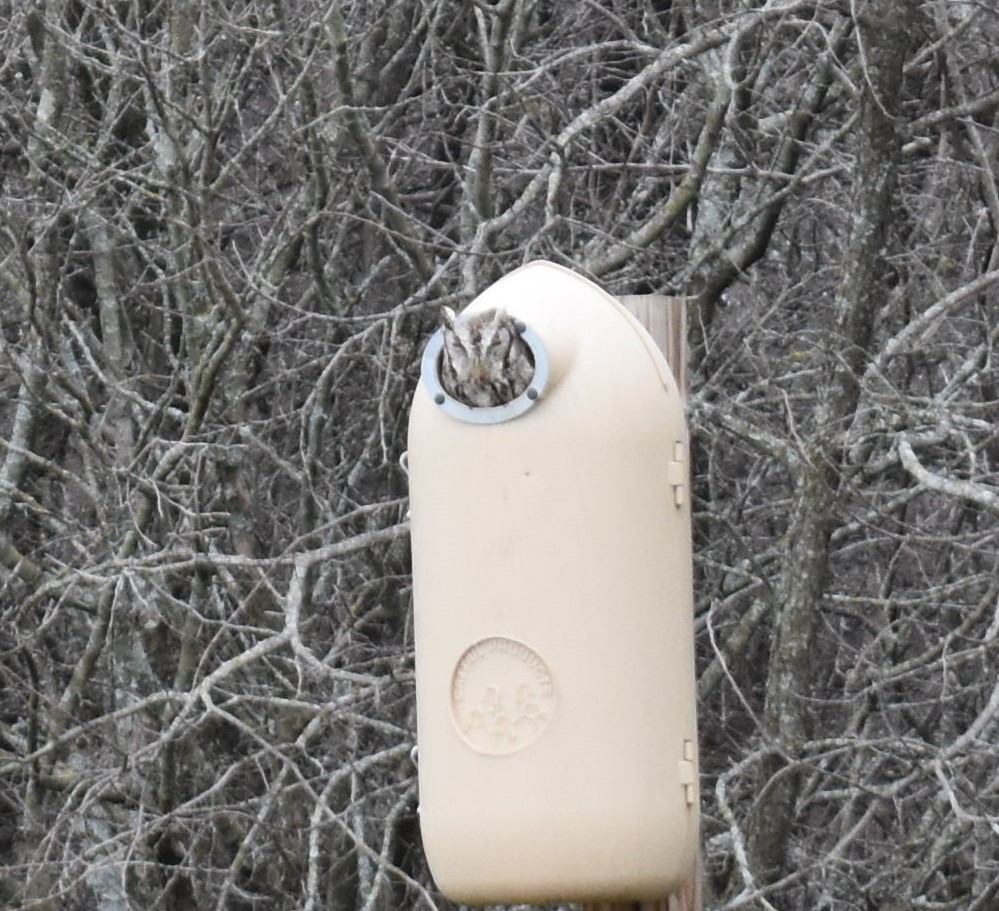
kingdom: Animalia
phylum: Chordata
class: Aves
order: Strigiformes
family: Strigidae
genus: Megascops
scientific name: Megascops asio
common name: Eastern screech-owl
